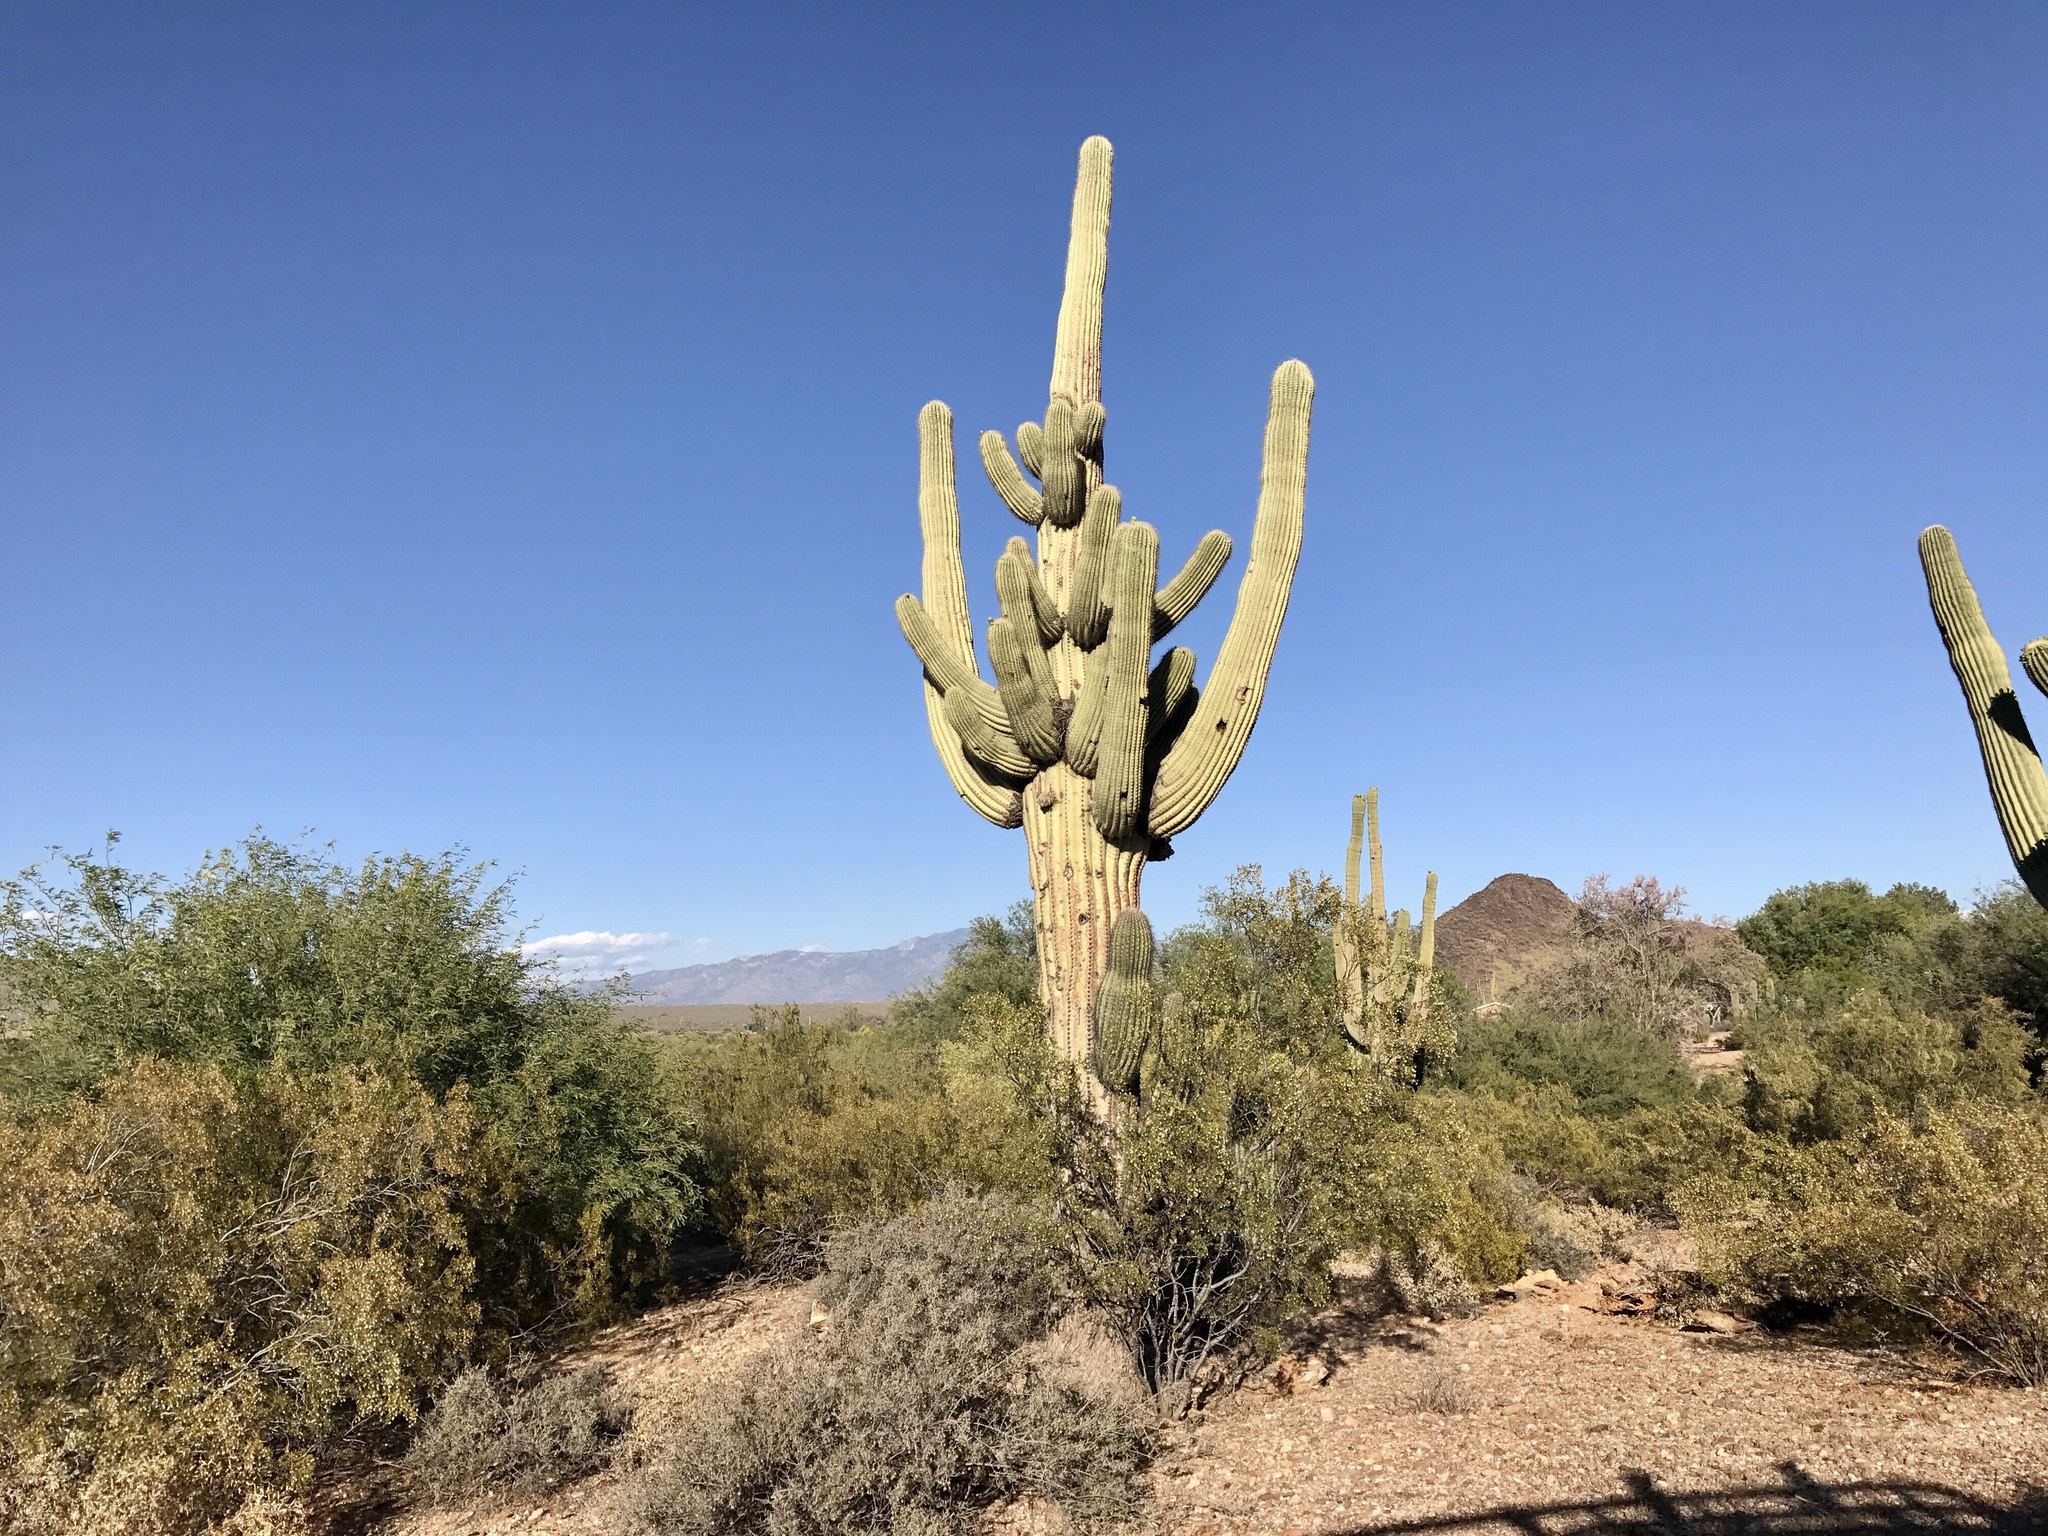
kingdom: Plantae
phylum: Tracheophyta
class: Magnoliopsida
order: Caryophyllales
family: Cactaceae
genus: Carnegiea
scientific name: Carnegiea gigantea
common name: Saguaro
